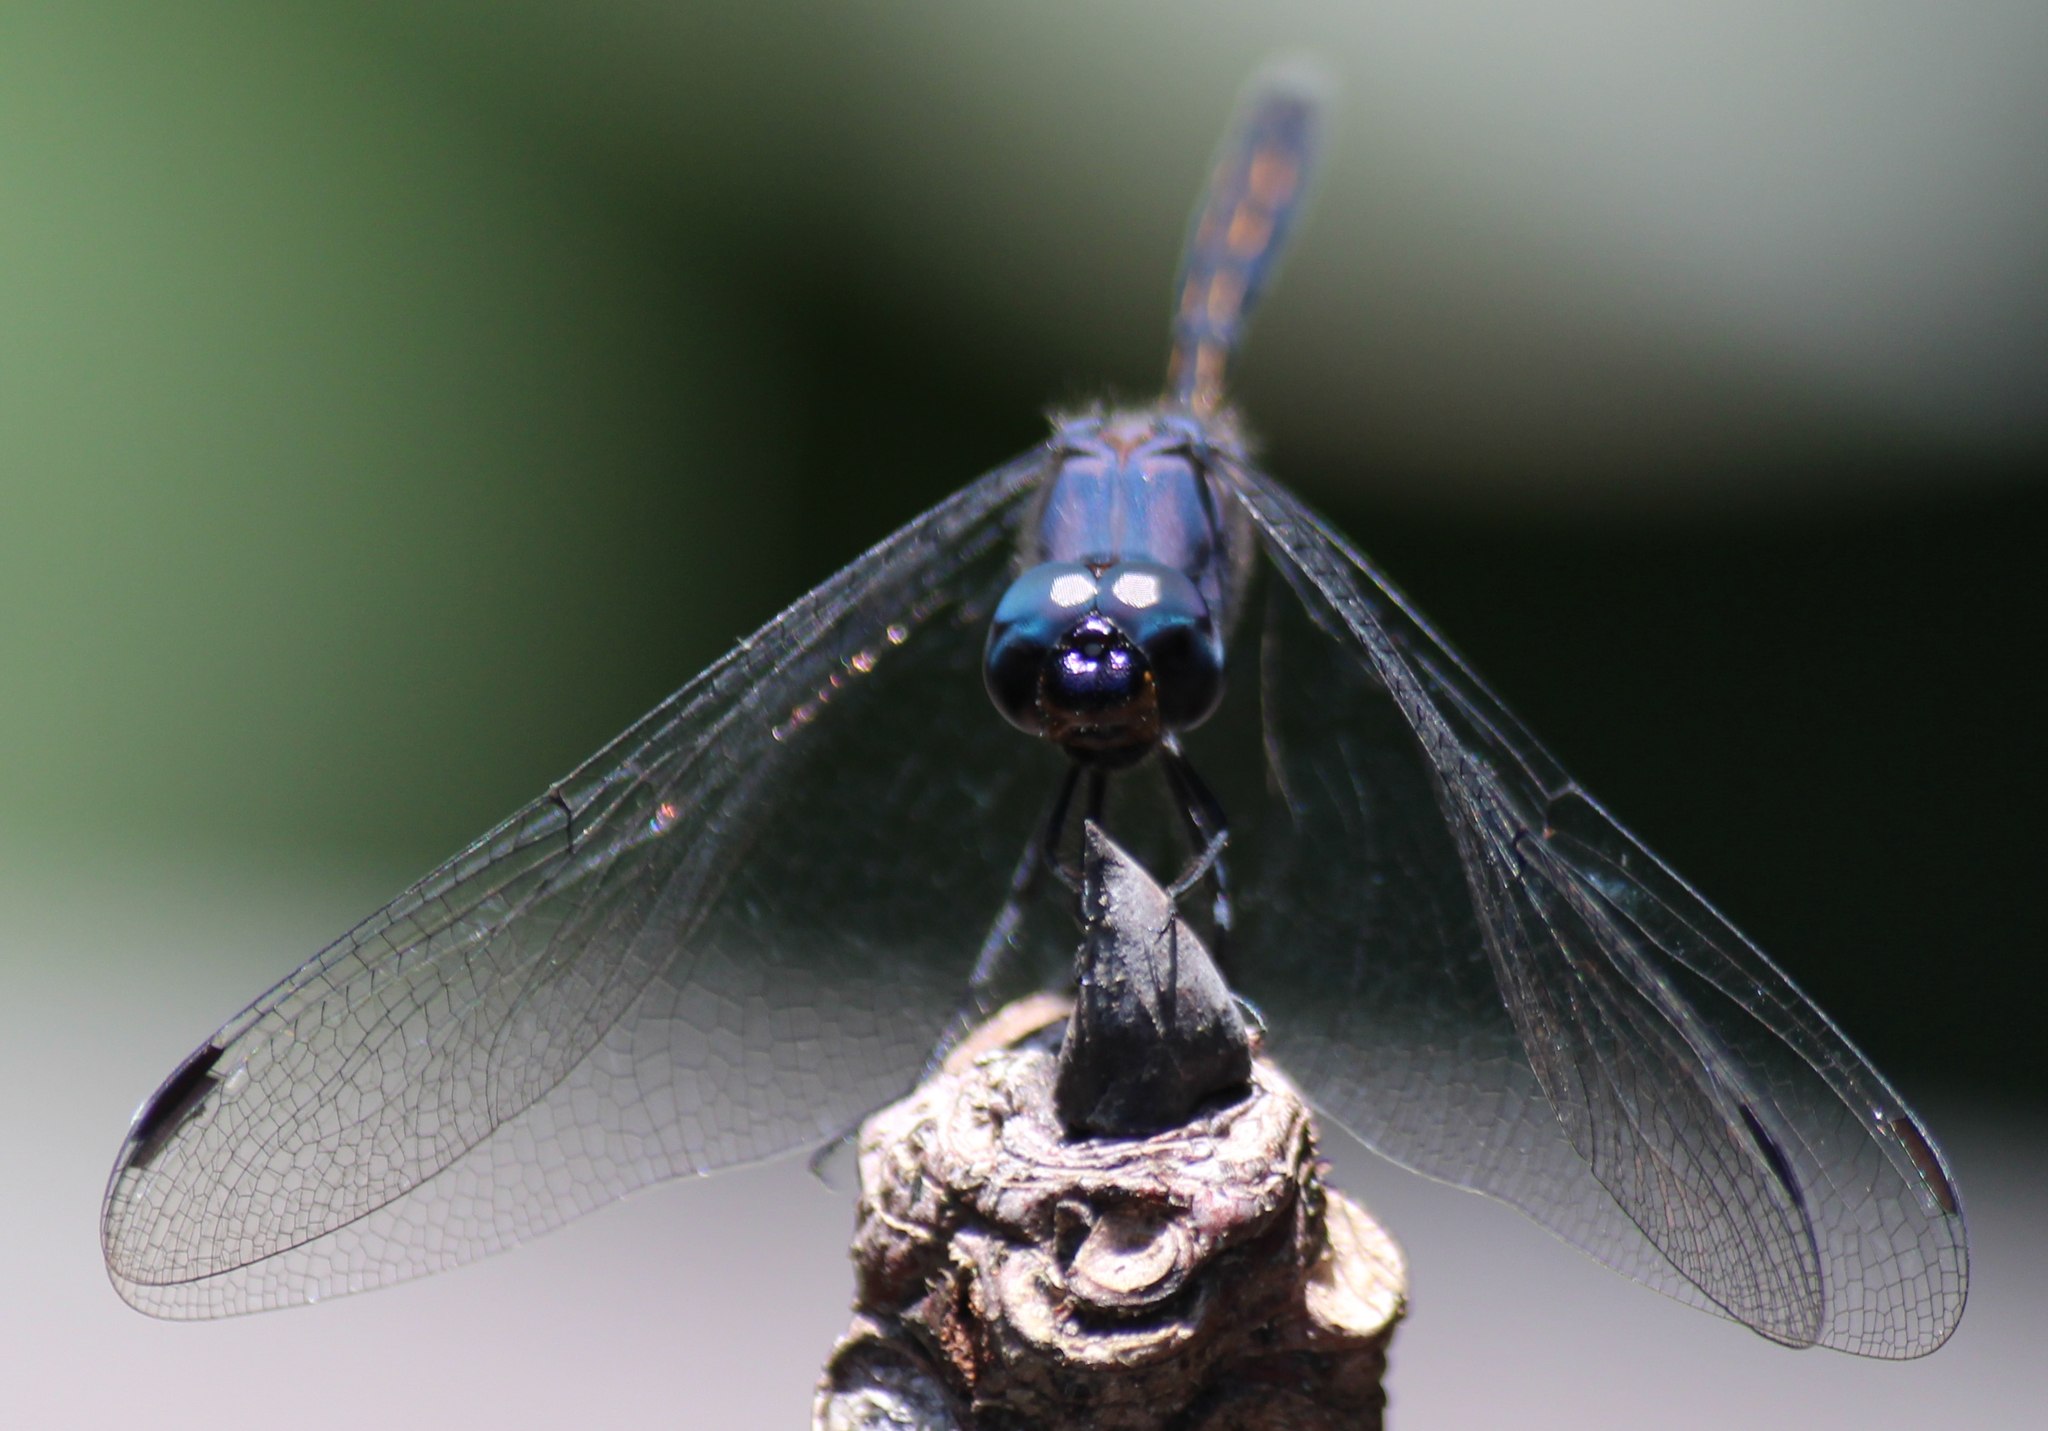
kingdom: Animalia
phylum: Arthropoda
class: Insecta
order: Odonata
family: Libellulidae
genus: Trithemis
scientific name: Trithemis aconita
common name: Halfshade dropwing
